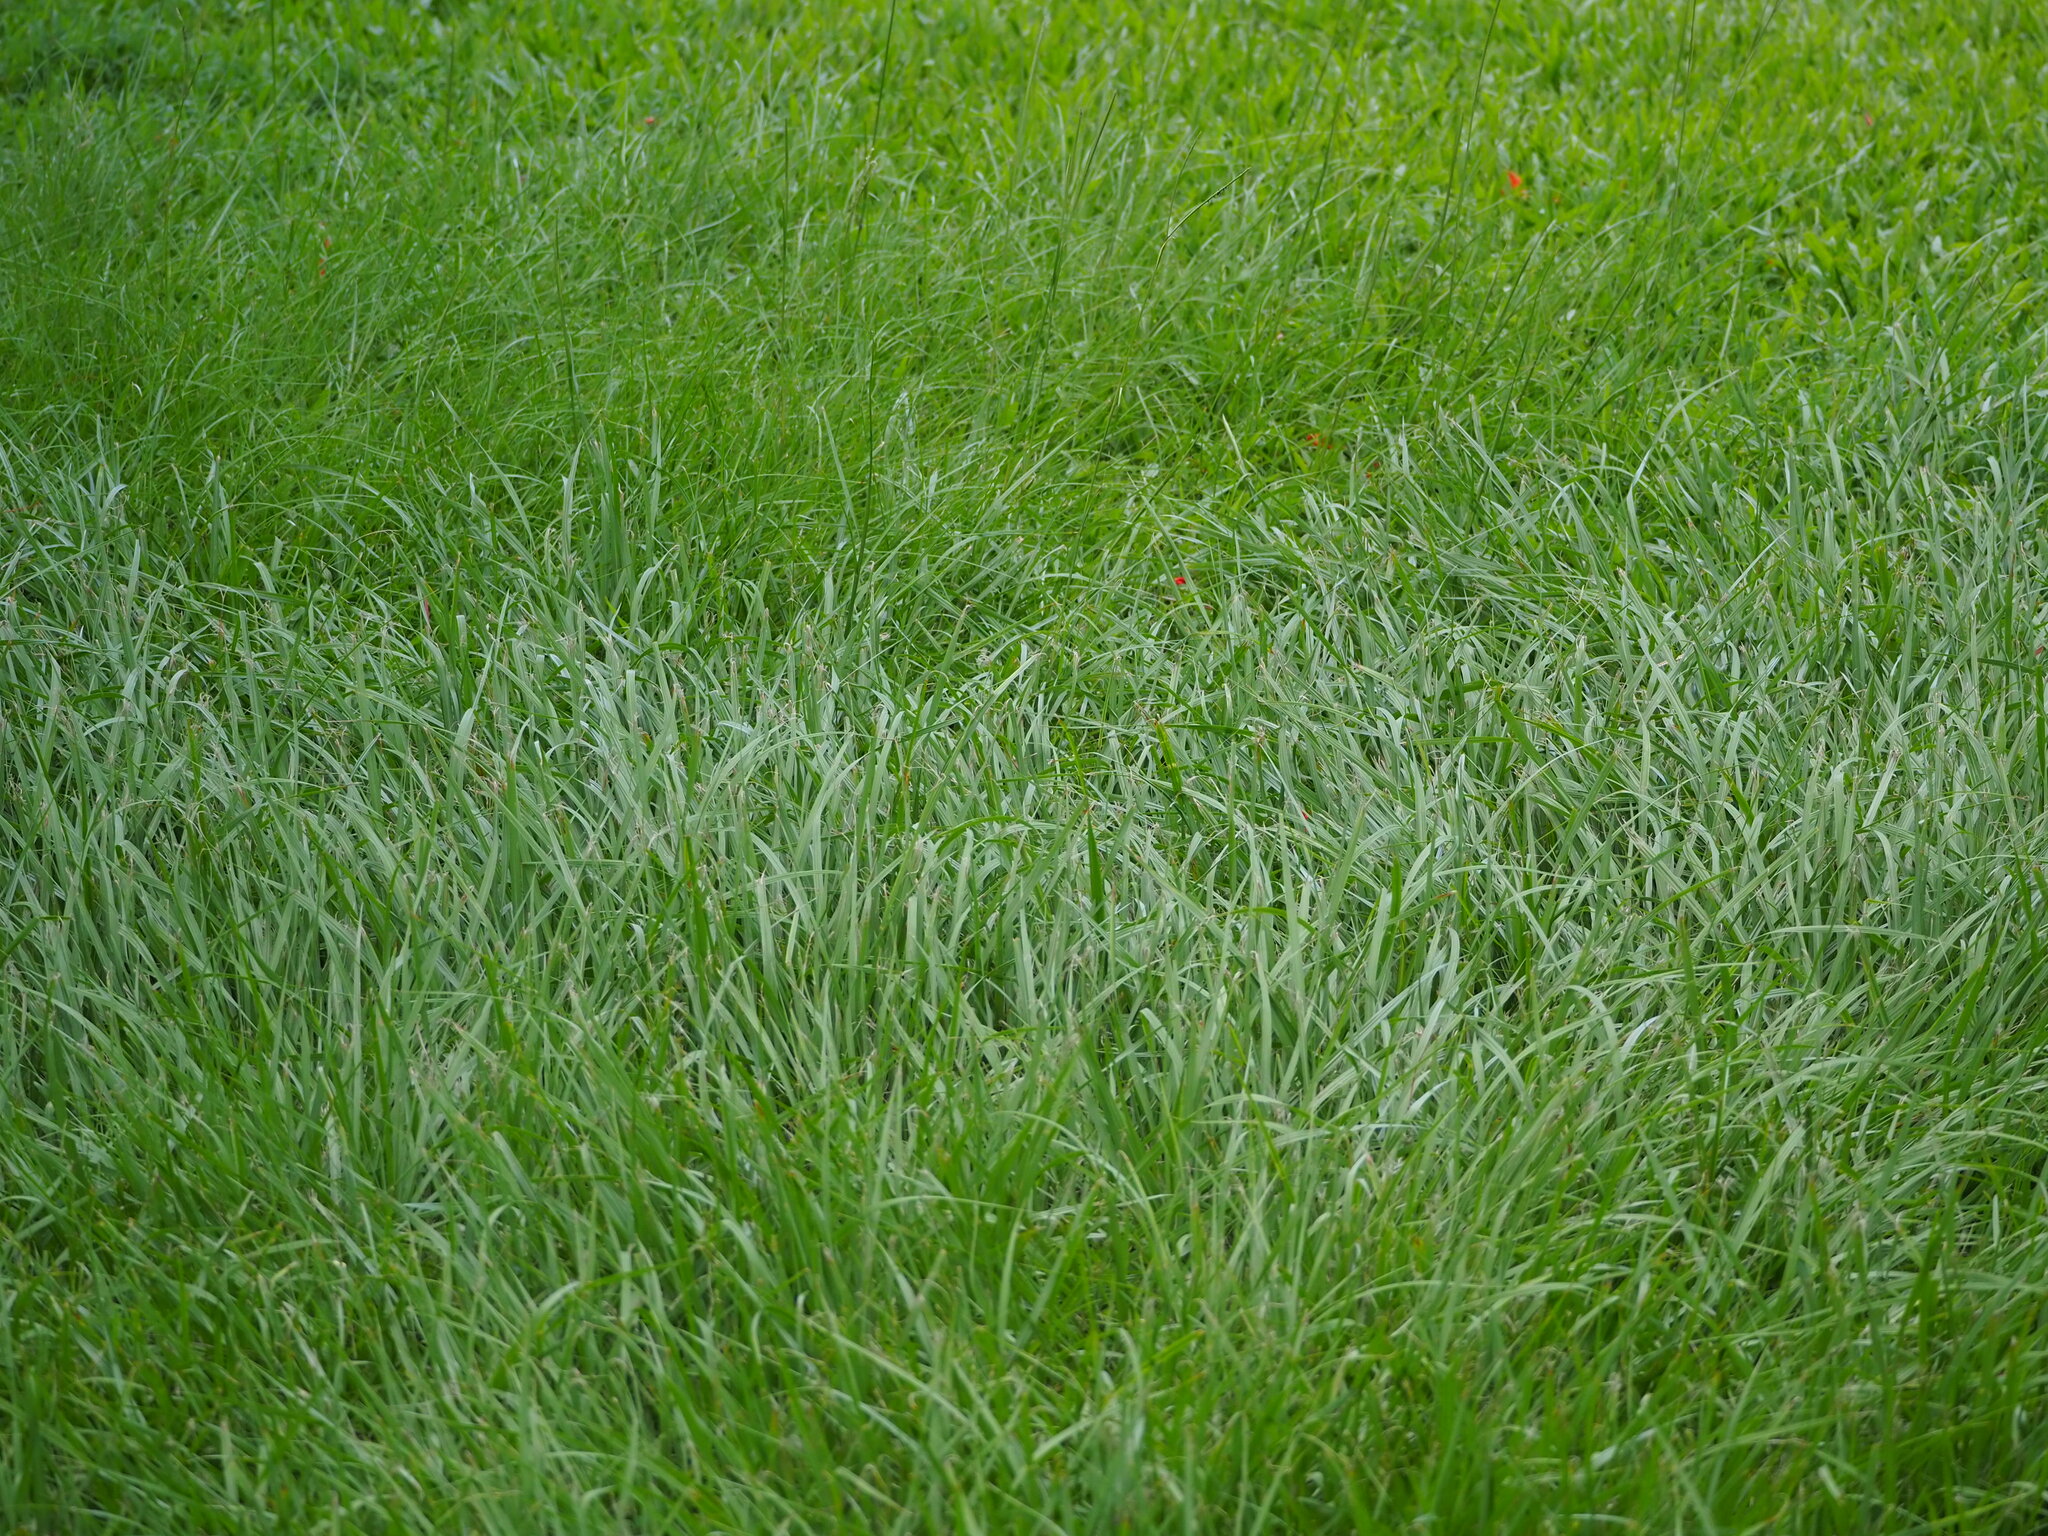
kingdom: Plantae
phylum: Tracheophyta
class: Liliopsida
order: Poales
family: Poaceae
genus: Paspalum
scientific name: Paspalum notatum
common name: Bahiagrass
